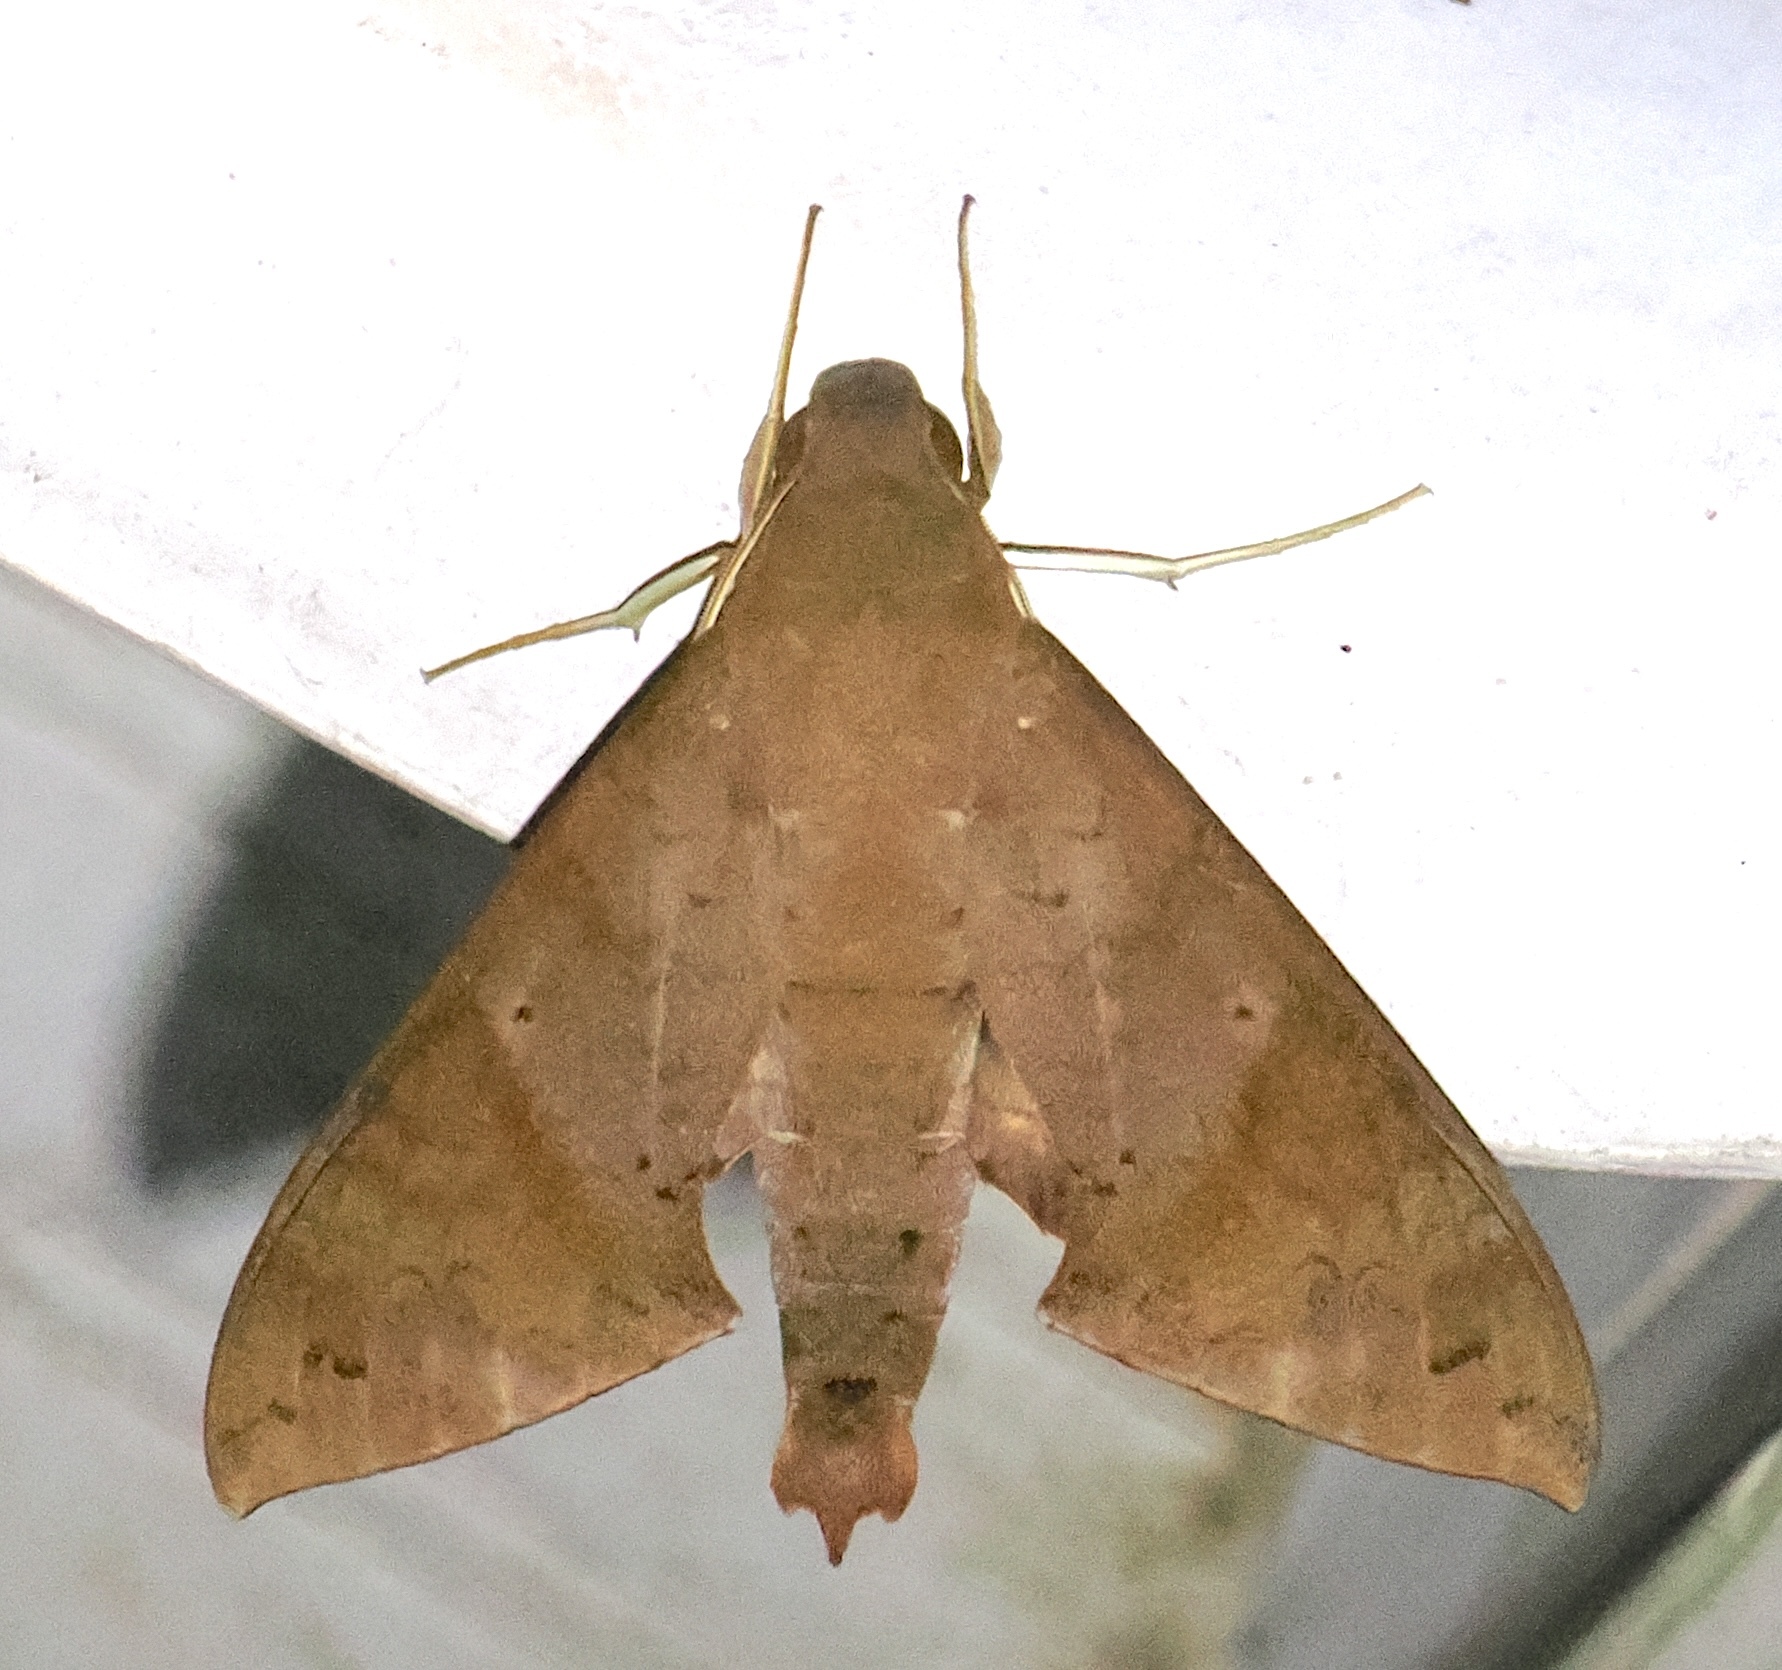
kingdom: Animalia
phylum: Arthropoda
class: Insecta
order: Lepidoptera
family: Sphingidae
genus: Pachylioides
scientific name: Pachylioides resumens
